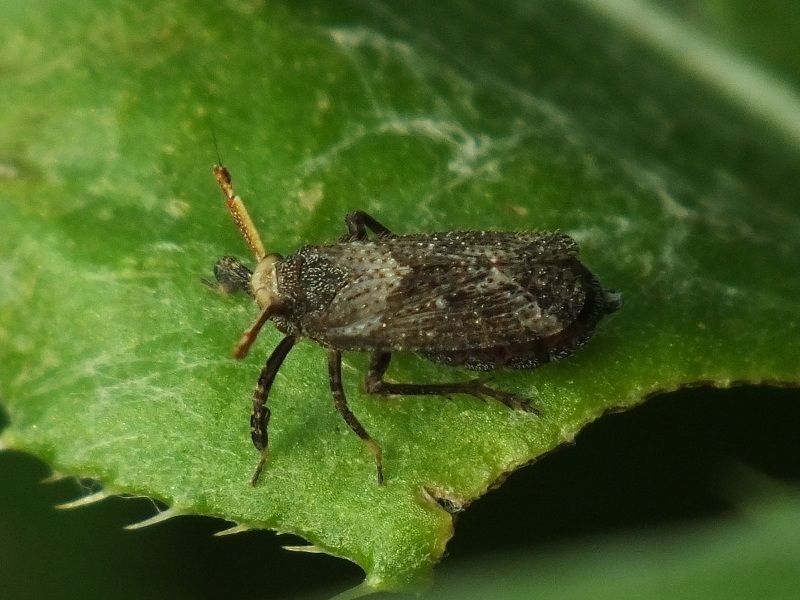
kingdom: Animalia
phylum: Arthropoda
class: Insecta
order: Hemiptera
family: Delphacidae
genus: Asiraca
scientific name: Asiraca clavicornis
